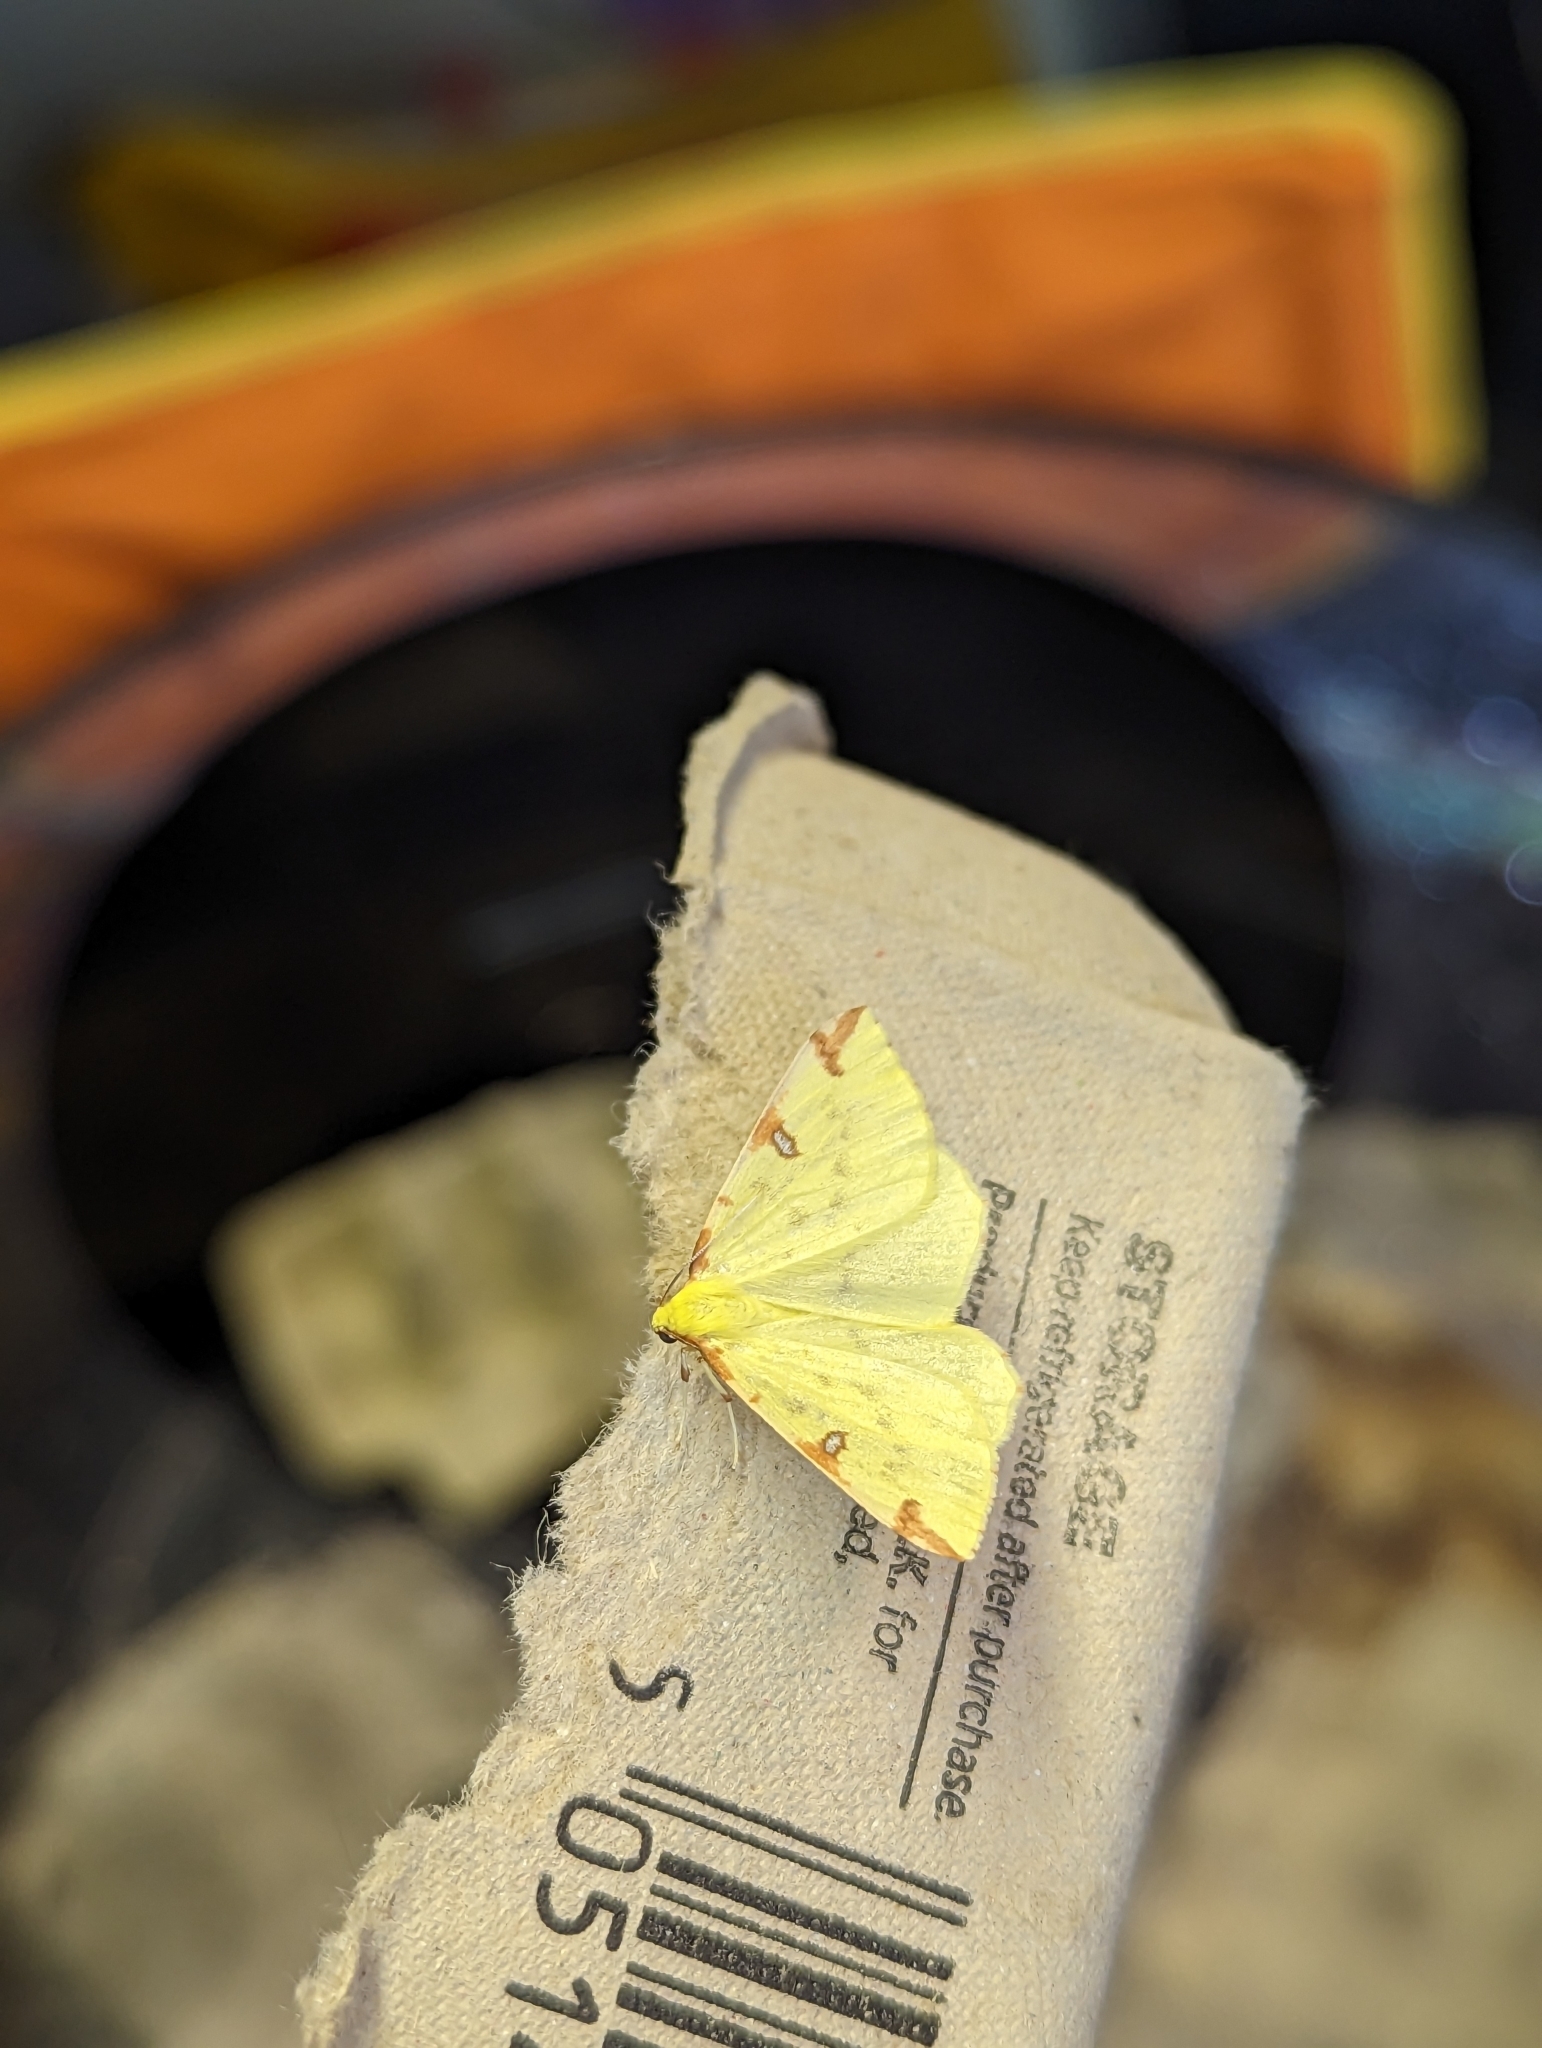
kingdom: Animalia
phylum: Arthropoda
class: Insecta
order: Lepidoptera
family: Geometridae
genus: Opisthograptis
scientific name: Opisthograptis luteolata
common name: Brimstone moth
